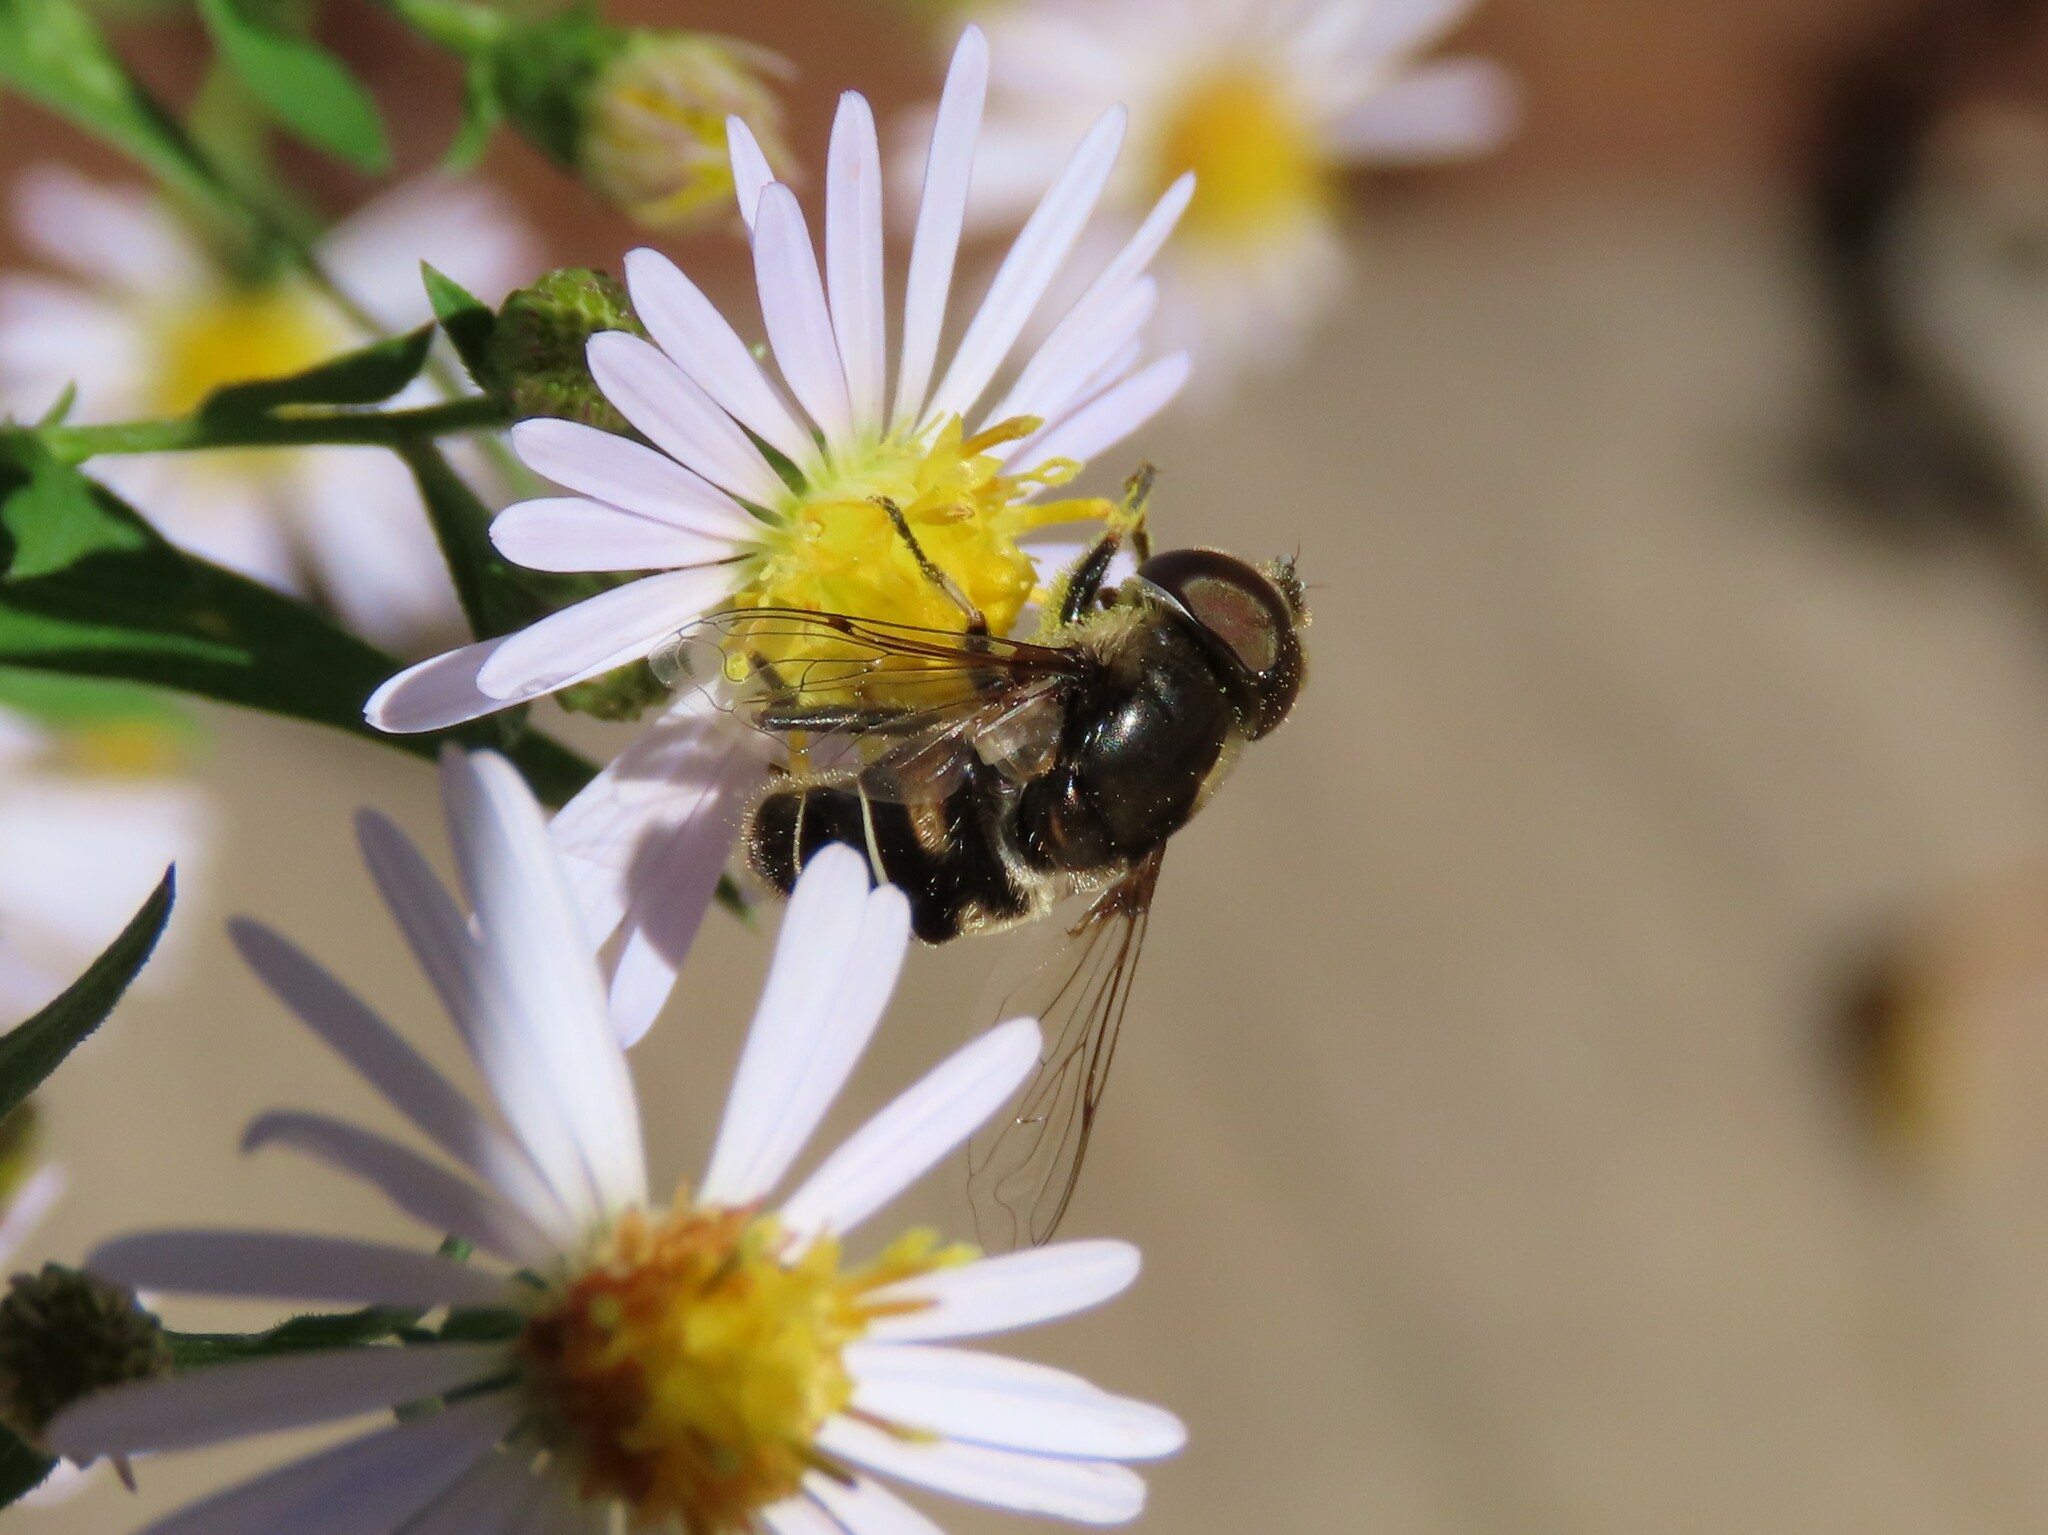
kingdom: Animalia
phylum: Arthropoda
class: Insecta
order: Diptera
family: Syrphidae
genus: Eristalis
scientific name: Eristalis dimidiata
